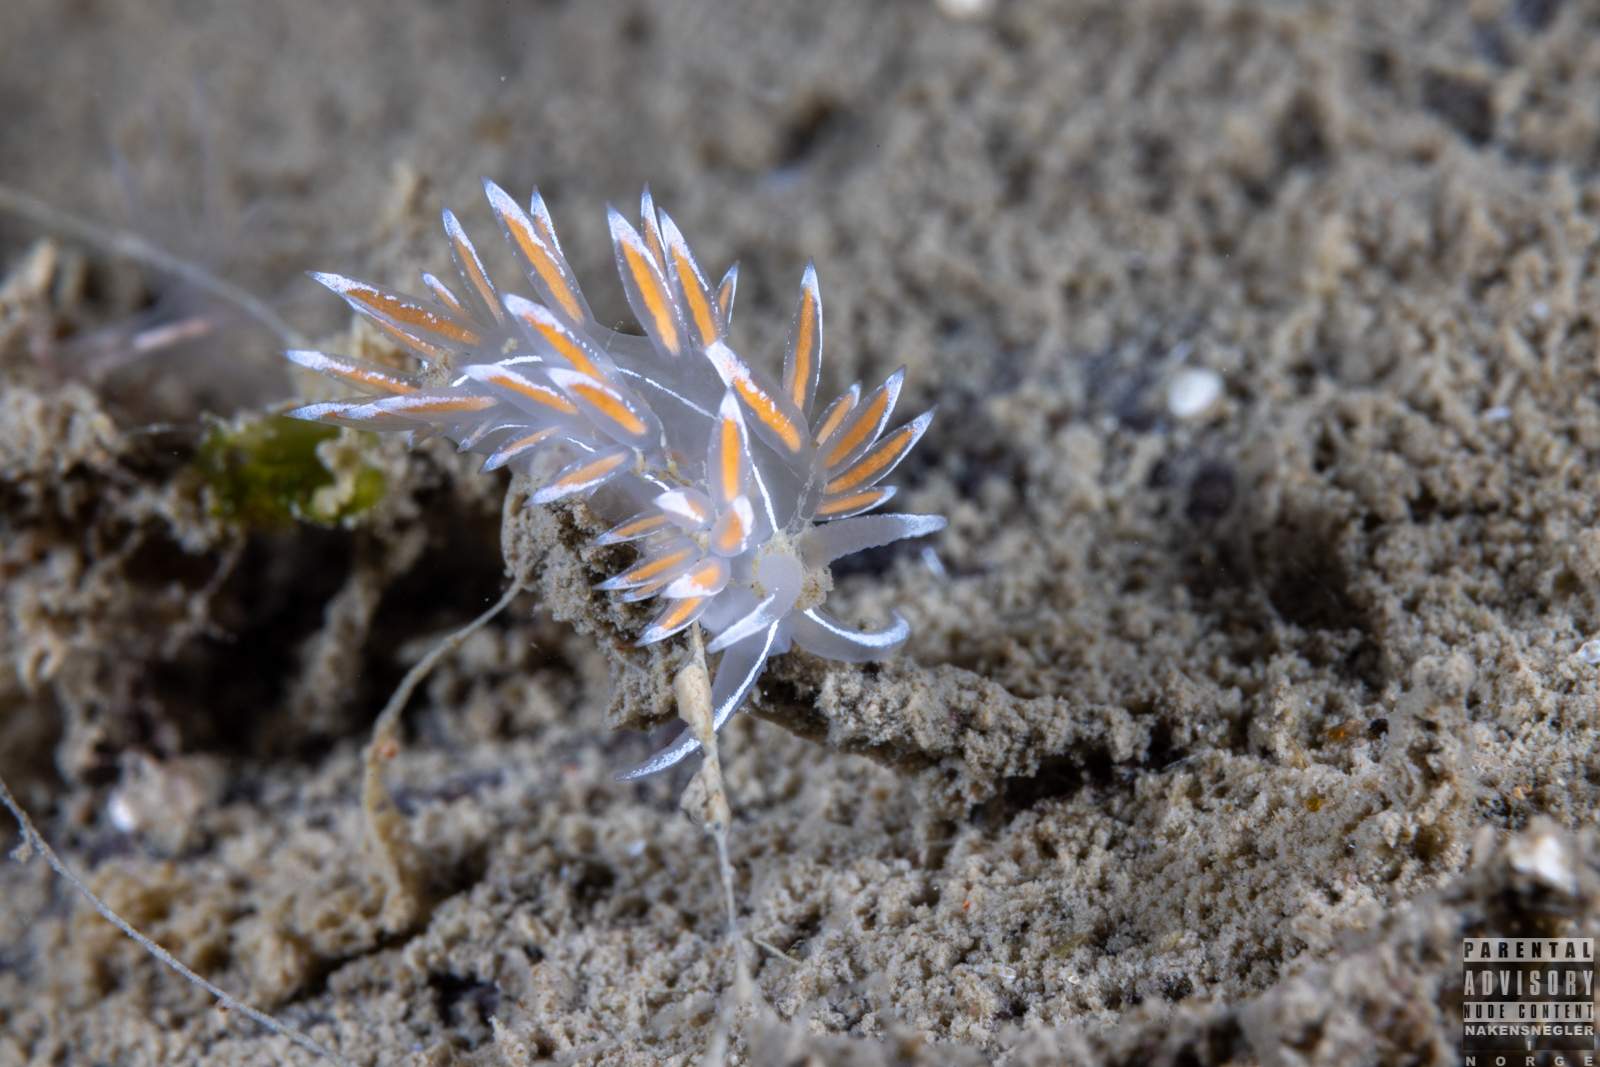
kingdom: Animalia
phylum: Mollusca
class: Gastropoda
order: Nudibranchia
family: Coryphellidae
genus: Coryphella
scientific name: Coryphella lineata
